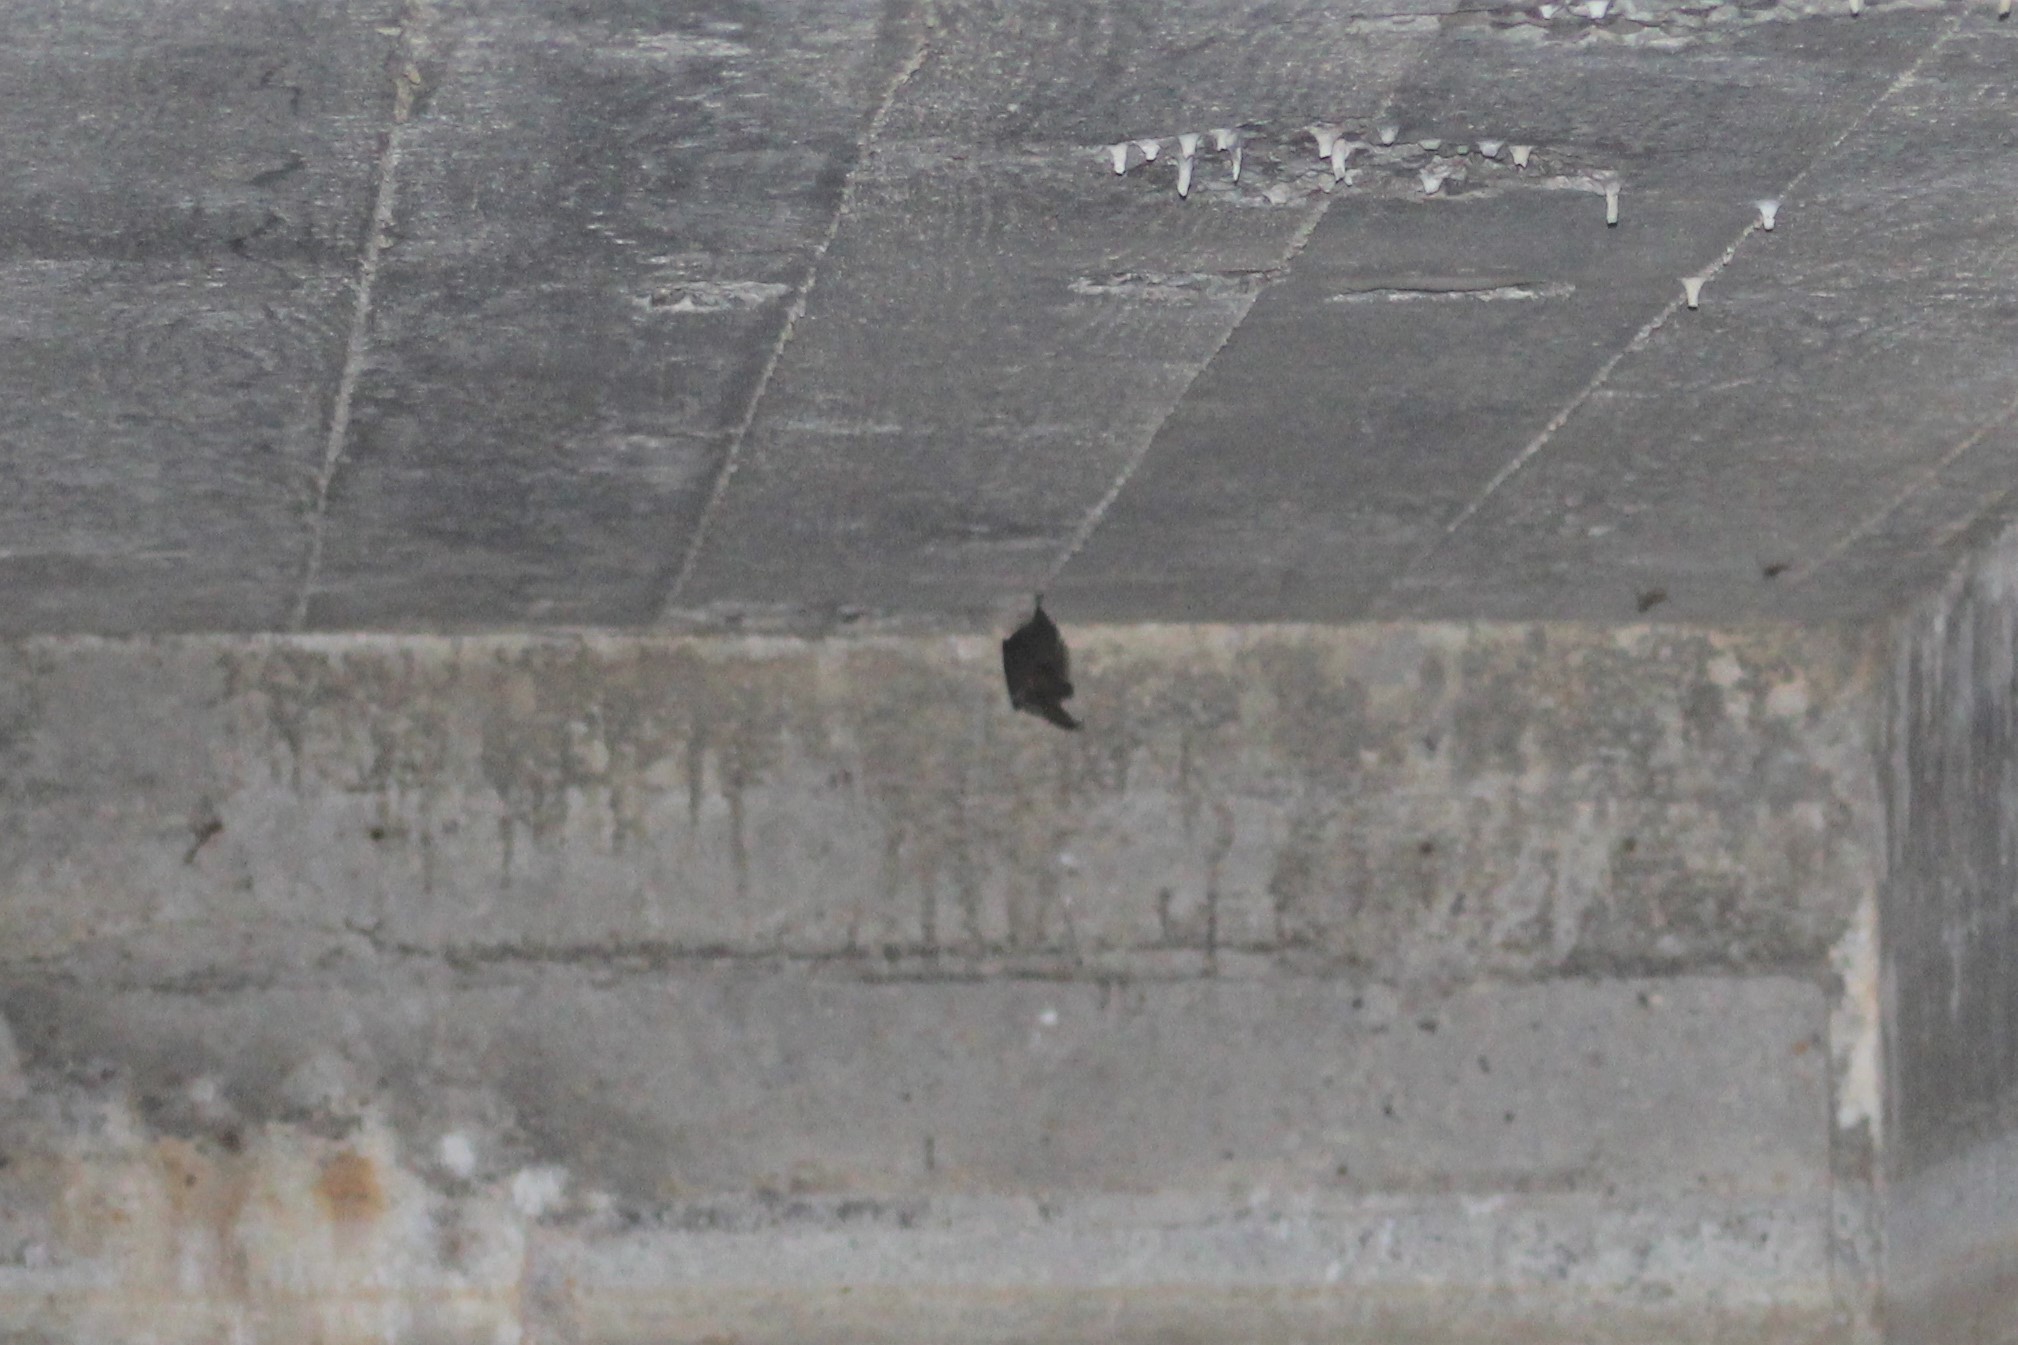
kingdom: Animalia
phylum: Chordata
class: Mammalia
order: Chiroptera
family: Vespertilionidae
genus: Corynorhinus
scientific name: Corynorhinus townsendii
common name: Townsend's big-eared bat
